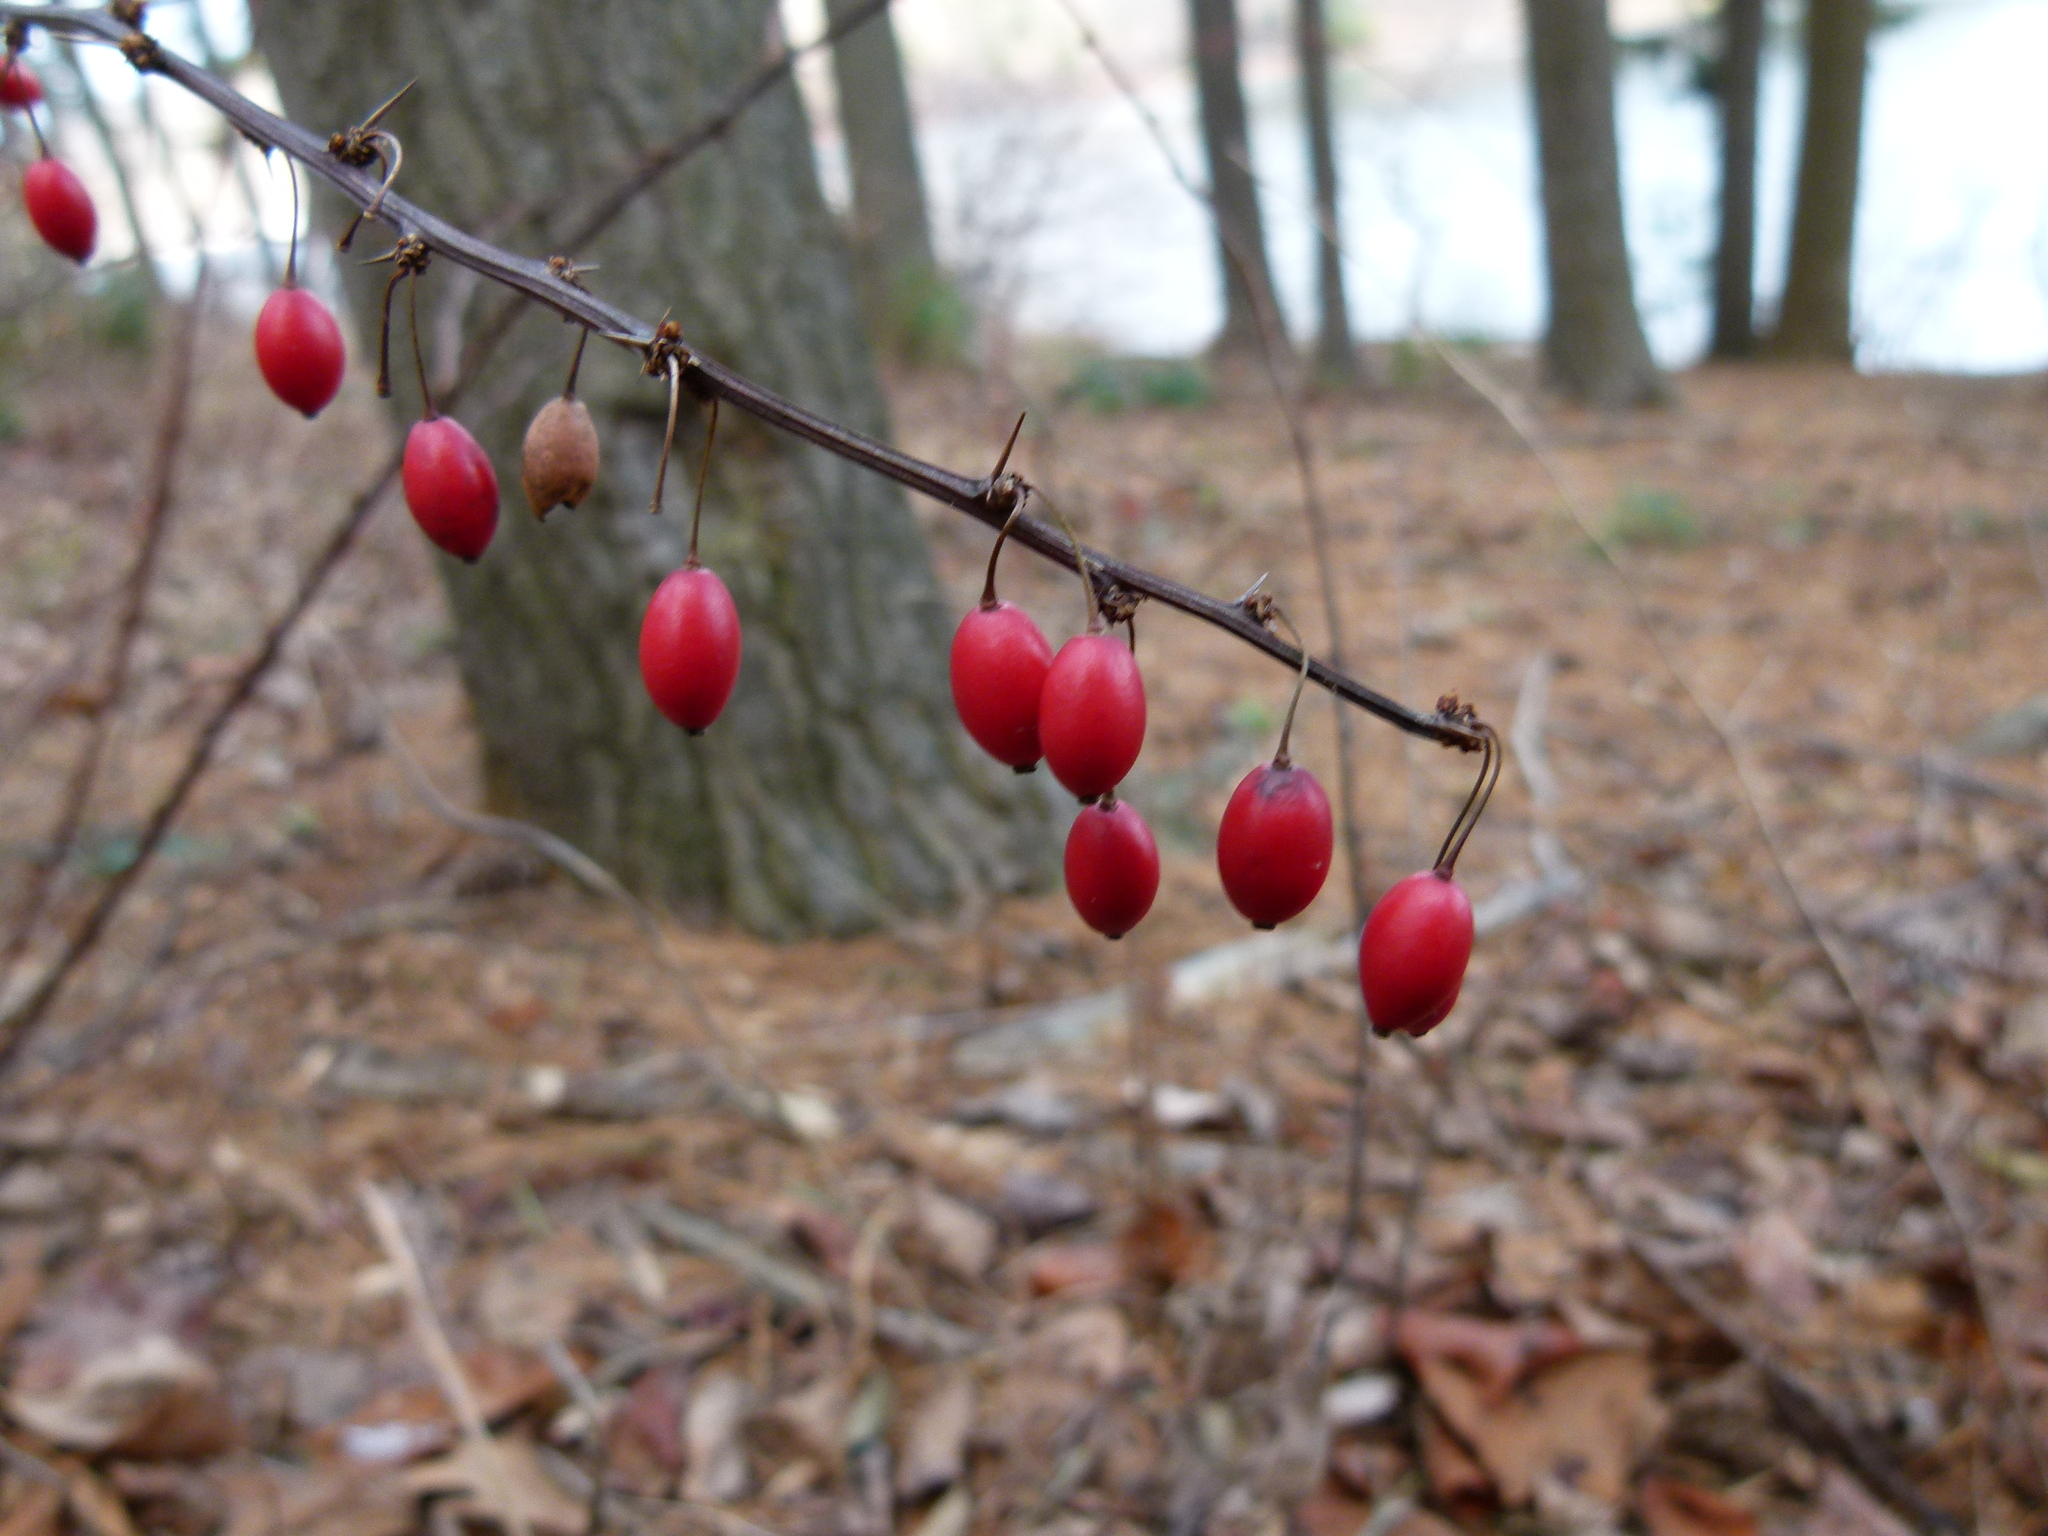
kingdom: Plantae
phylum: Tracheophyta
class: Magnoliopsida
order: Ranunculales
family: Berberidaceae
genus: Berberis
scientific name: Berberis thunbergii
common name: Japanese barberry
